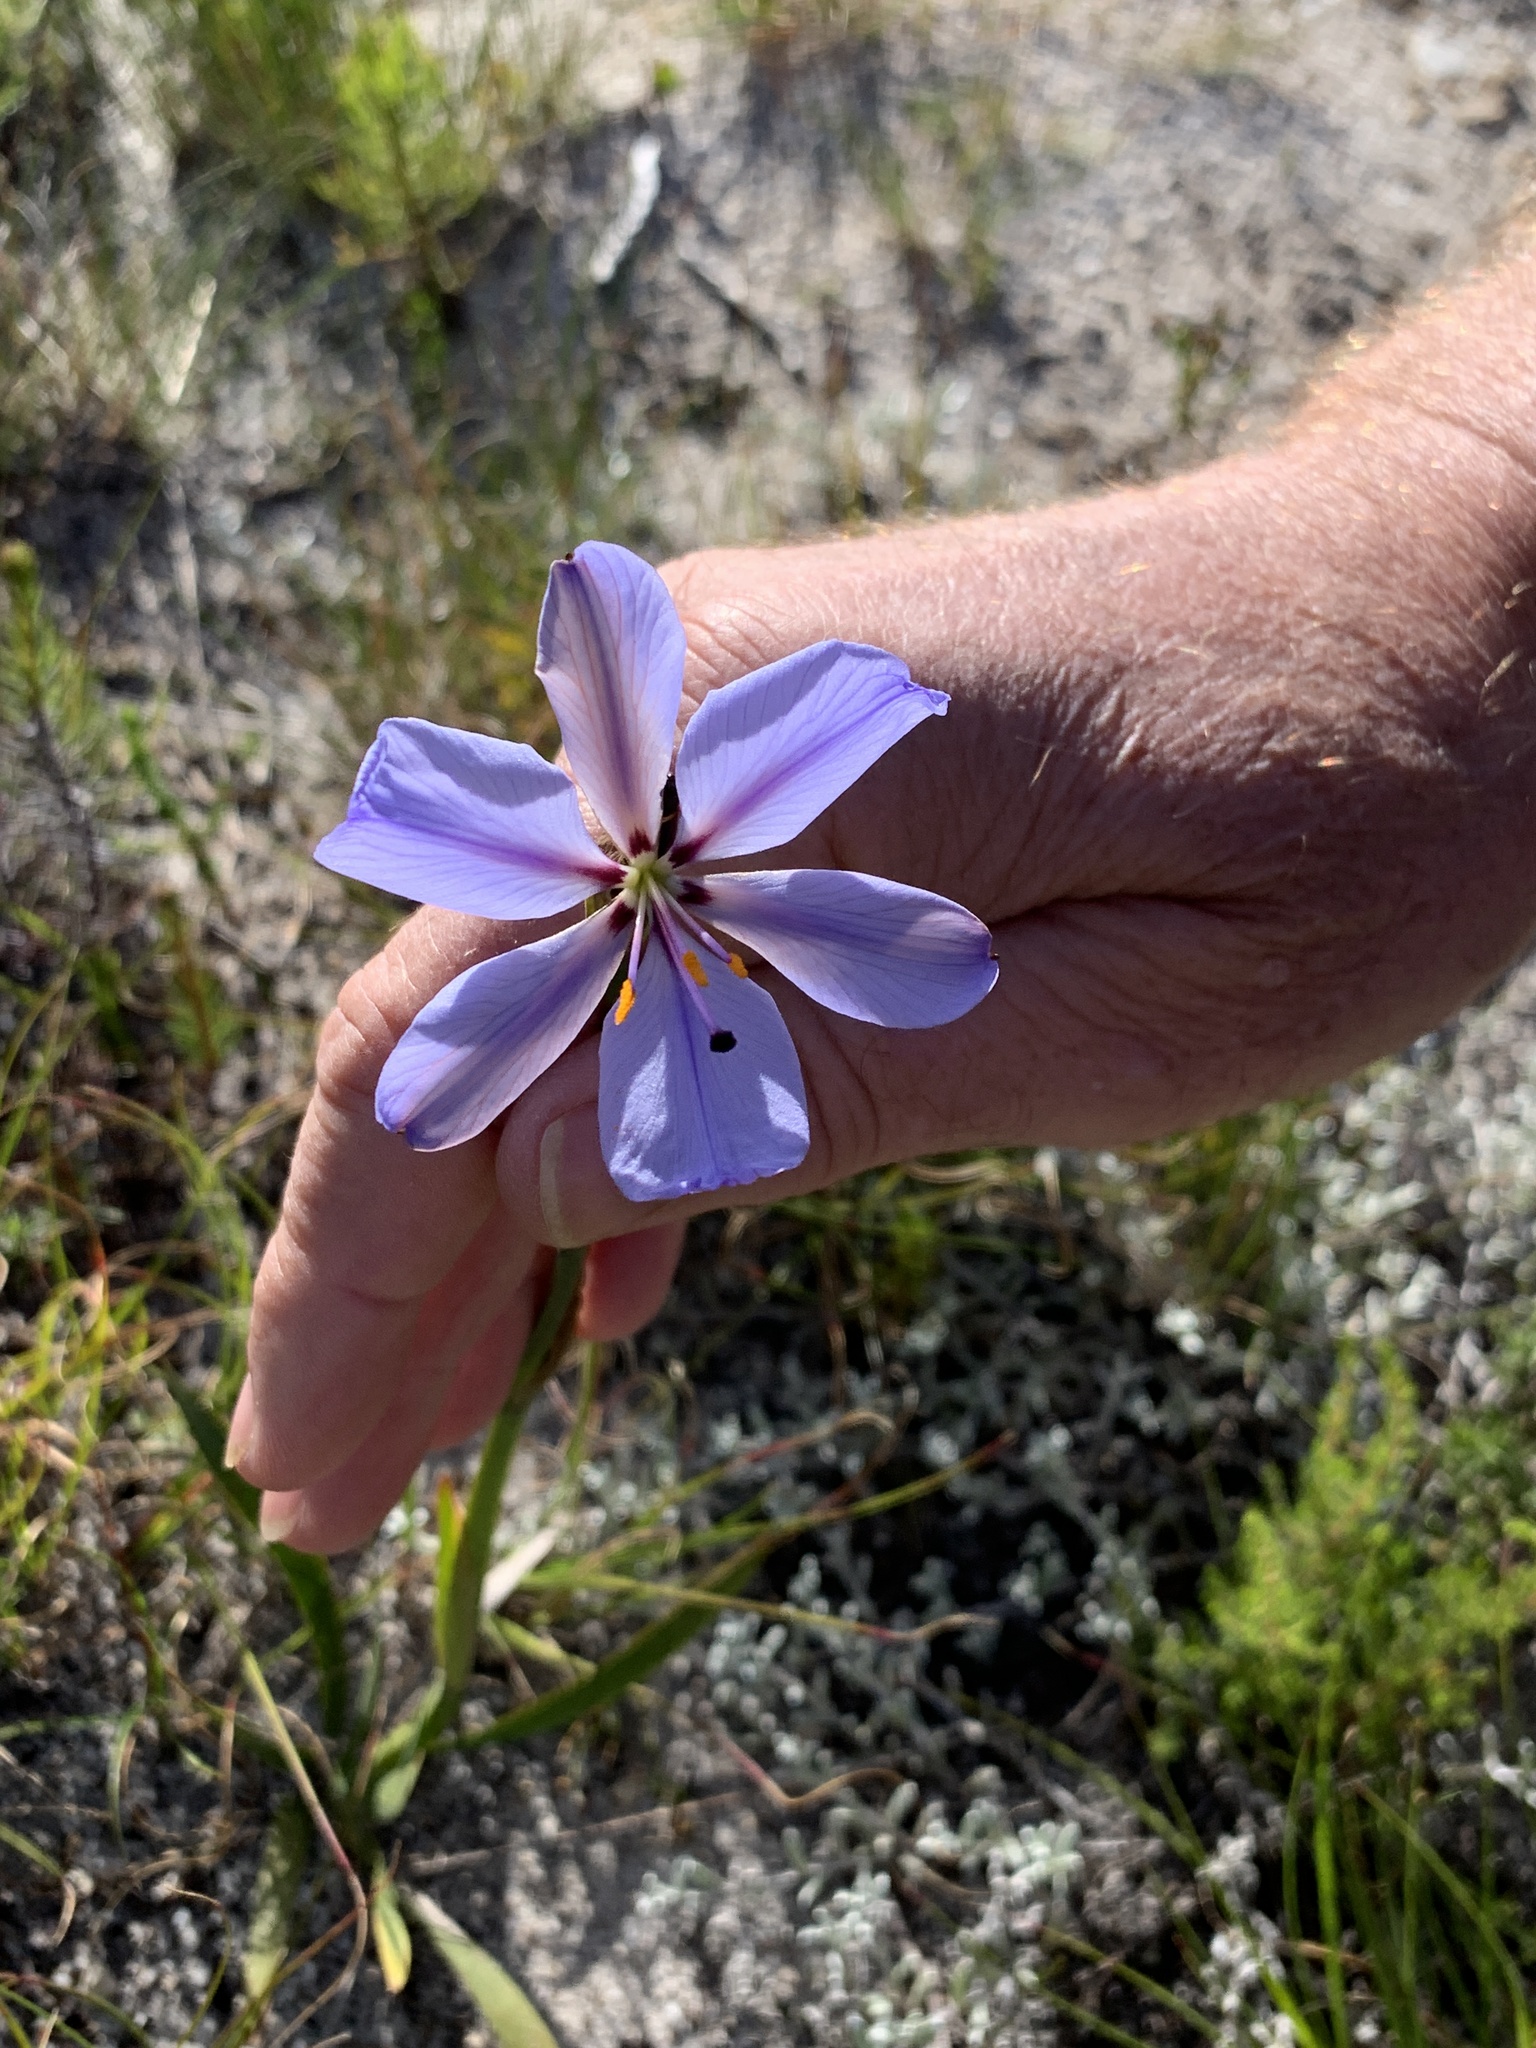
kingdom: Plantae
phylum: Tracheophyta
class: Liliopsida
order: Asparagales
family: Iridaceae
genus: Aristea
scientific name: Aristea spiralis
